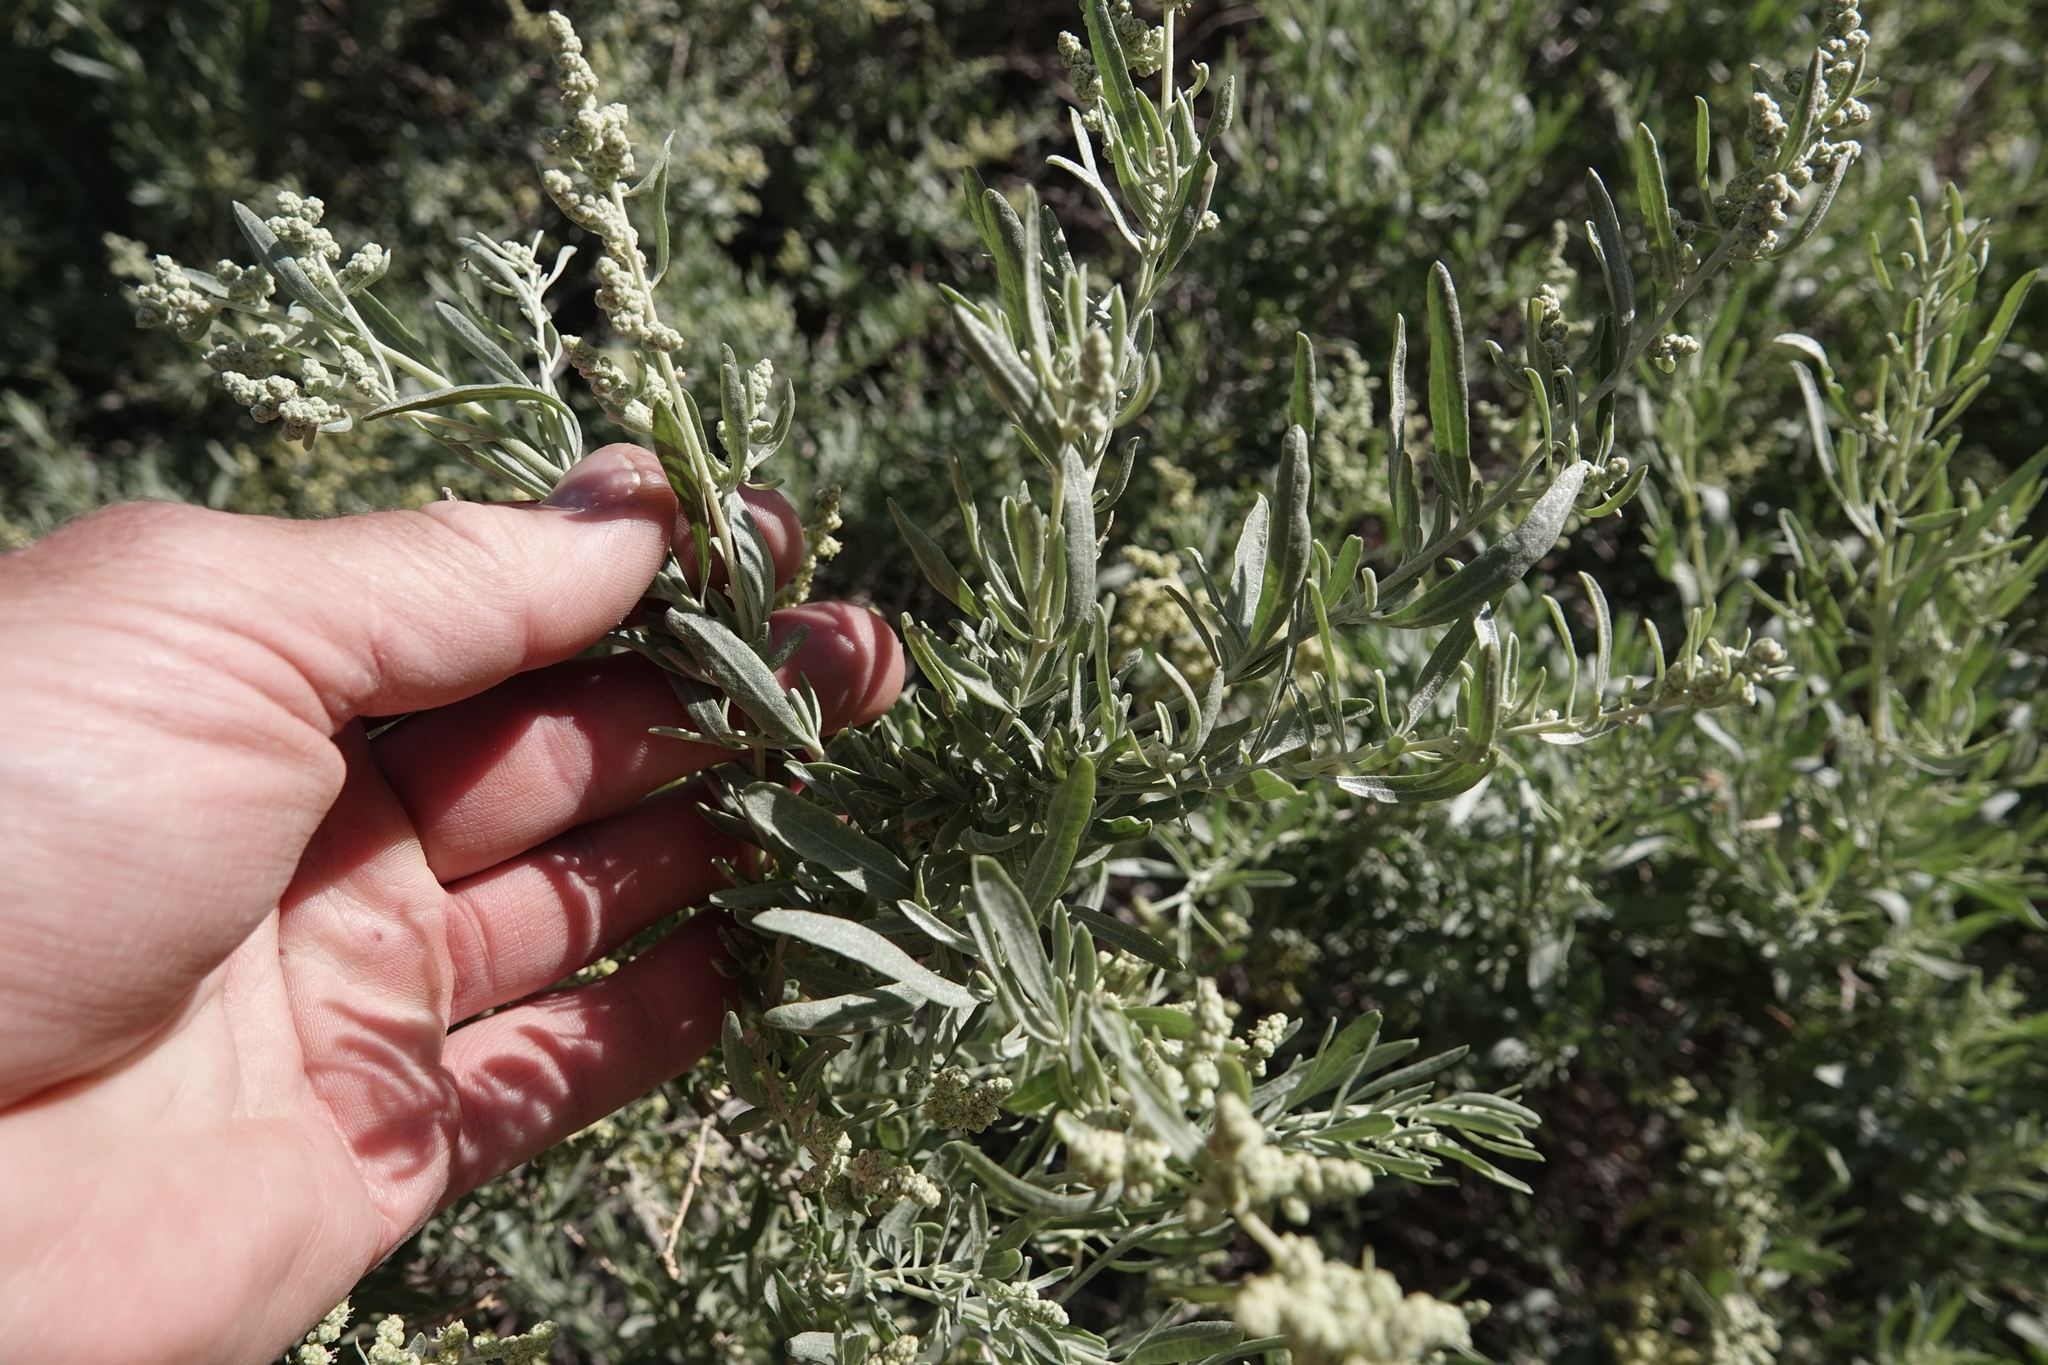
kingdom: Plantae
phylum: Tracheophyta
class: Magnoliopsida
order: Caryophyllales
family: Amaranthaceae
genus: Atriplex
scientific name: Atriplex canescens
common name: Four-wing saltbush
